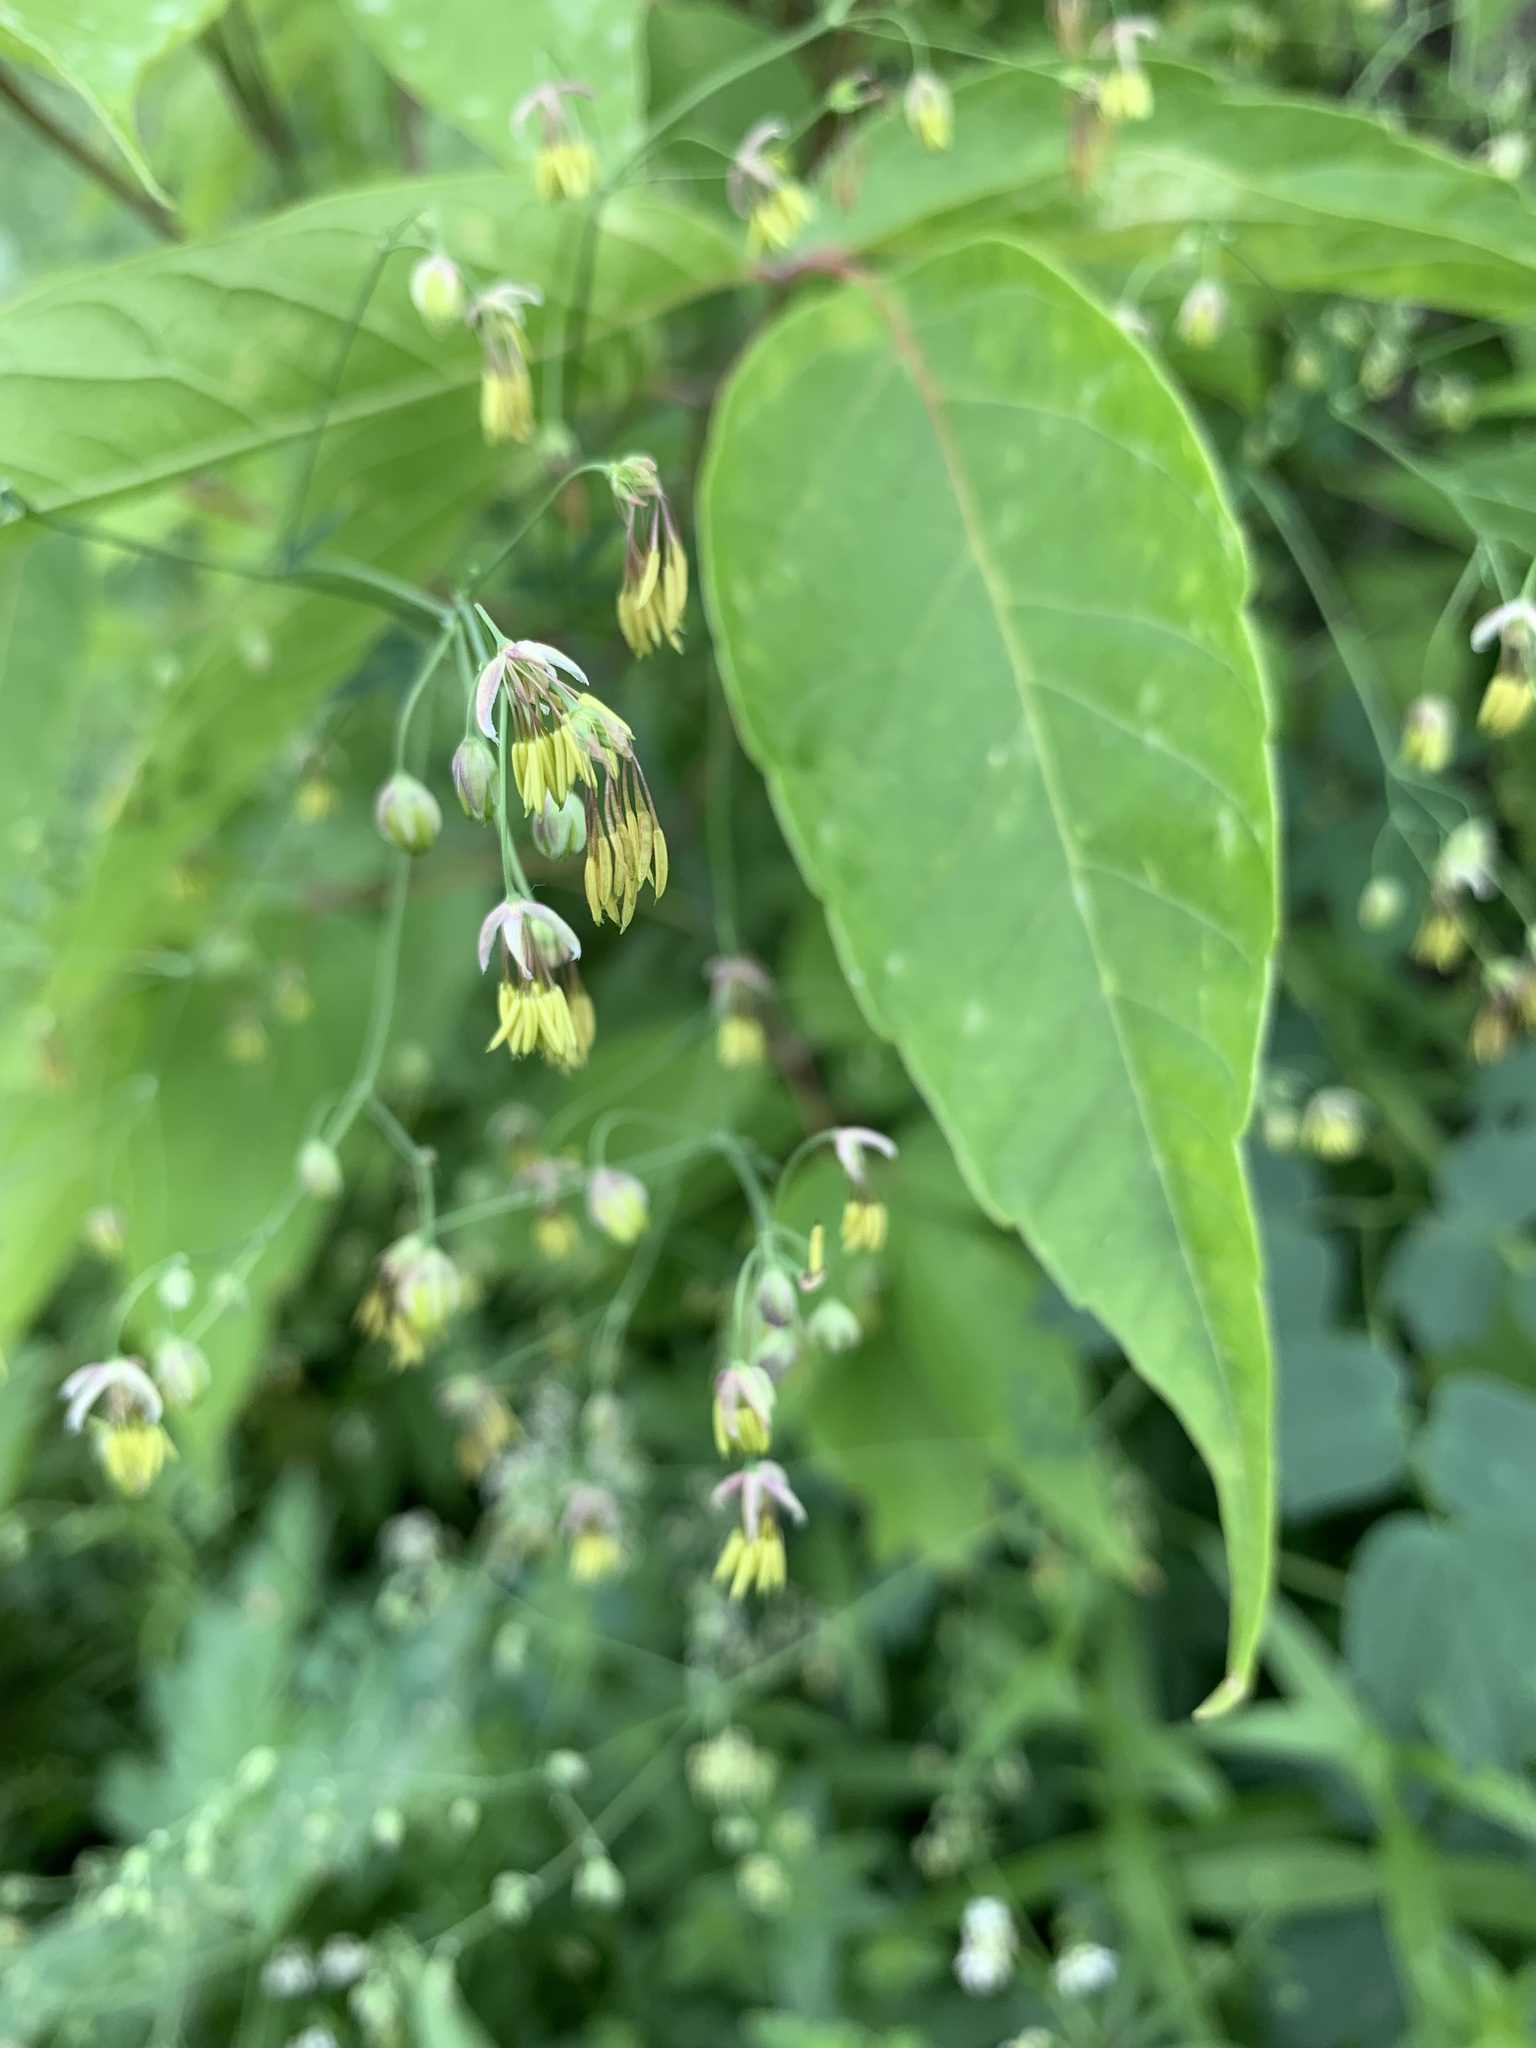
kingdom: Plantae
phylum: Tracheophyta
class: Magnoliopsida
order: Ranunculales
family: Ranunculaceae
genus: Thalictrum
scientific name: Thalictrum minus
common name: Lesser meadow-rue
